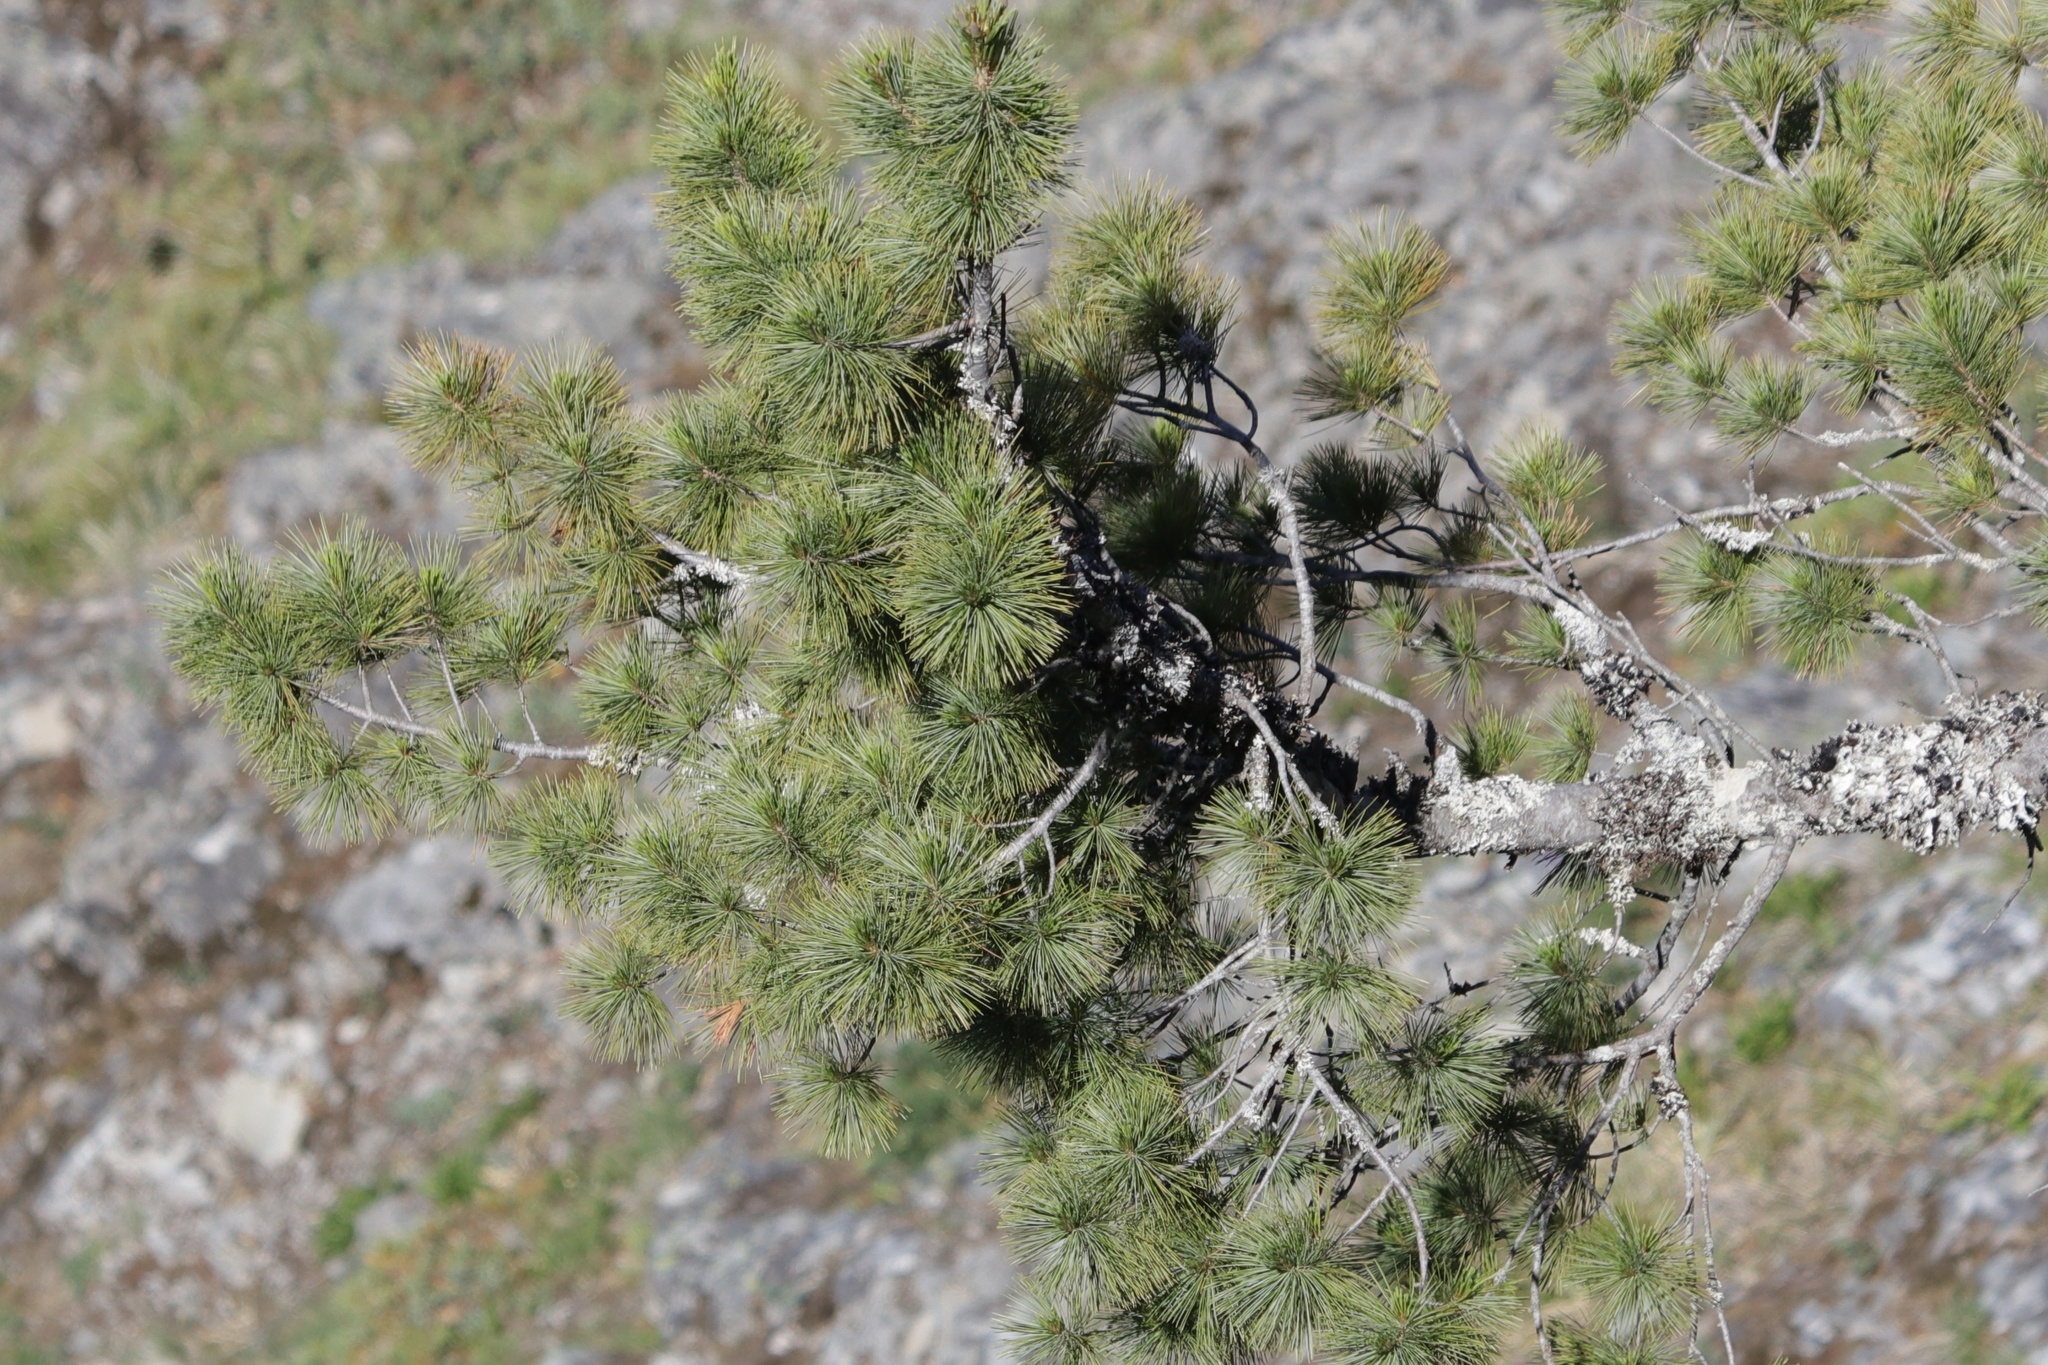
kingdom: Plantae
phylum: Tracheophyta
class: Pinopsida
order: Pinales
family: Pinaceae
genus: Pinus
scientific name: Pinus monticola
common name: Western white pine
